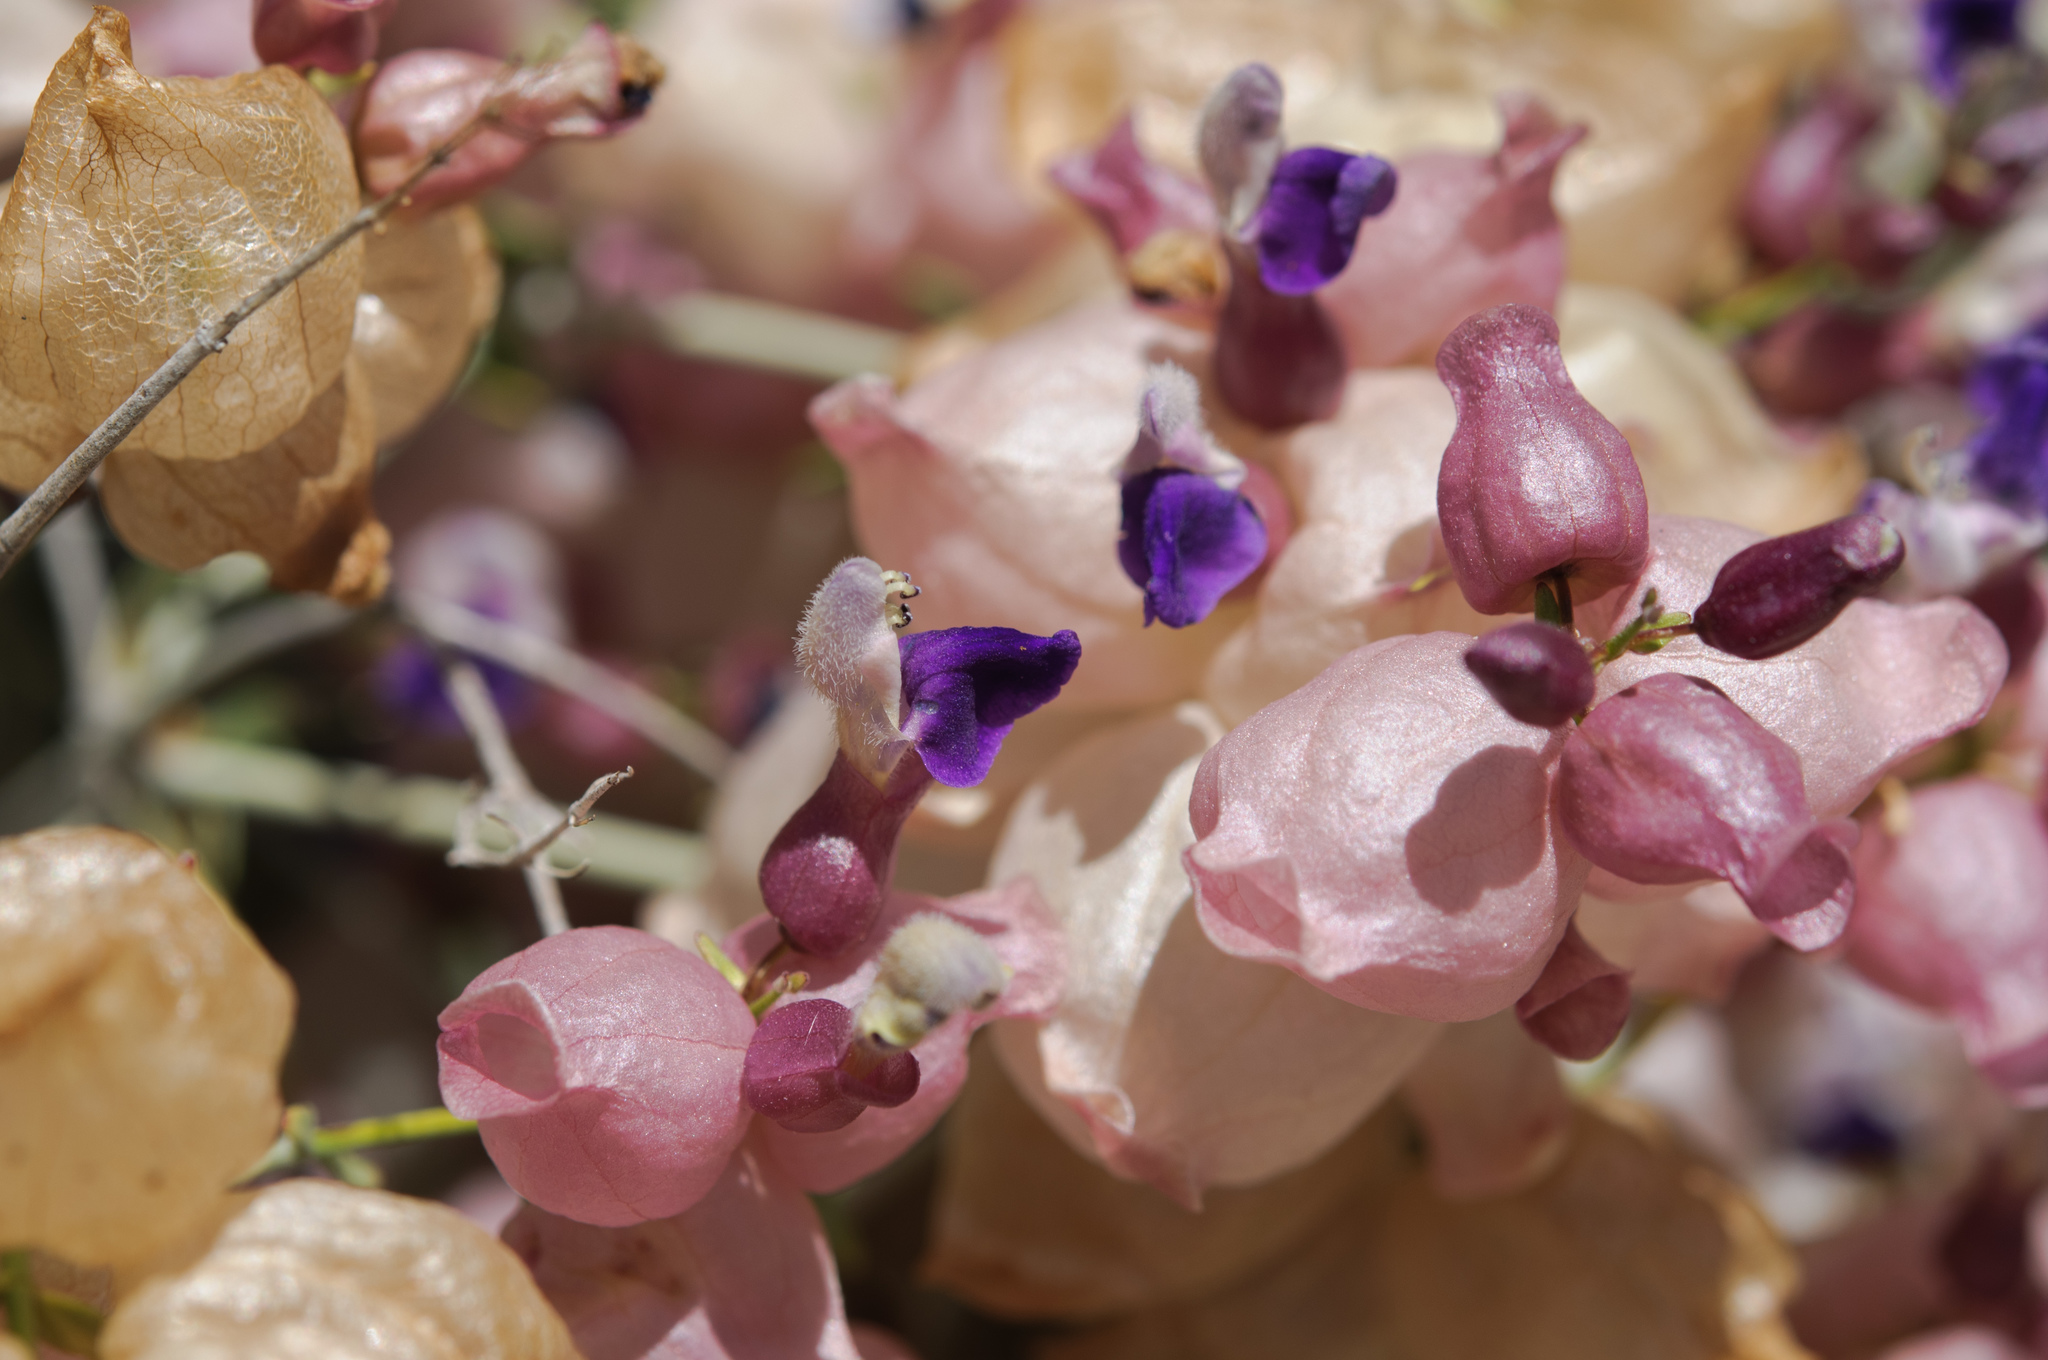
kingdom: Plantae
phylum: Tracheophyta
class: Magnoliopsida
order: Lamiales
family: Lamiaceae
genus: Scutellaria
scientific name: Scutellaria mexicana
